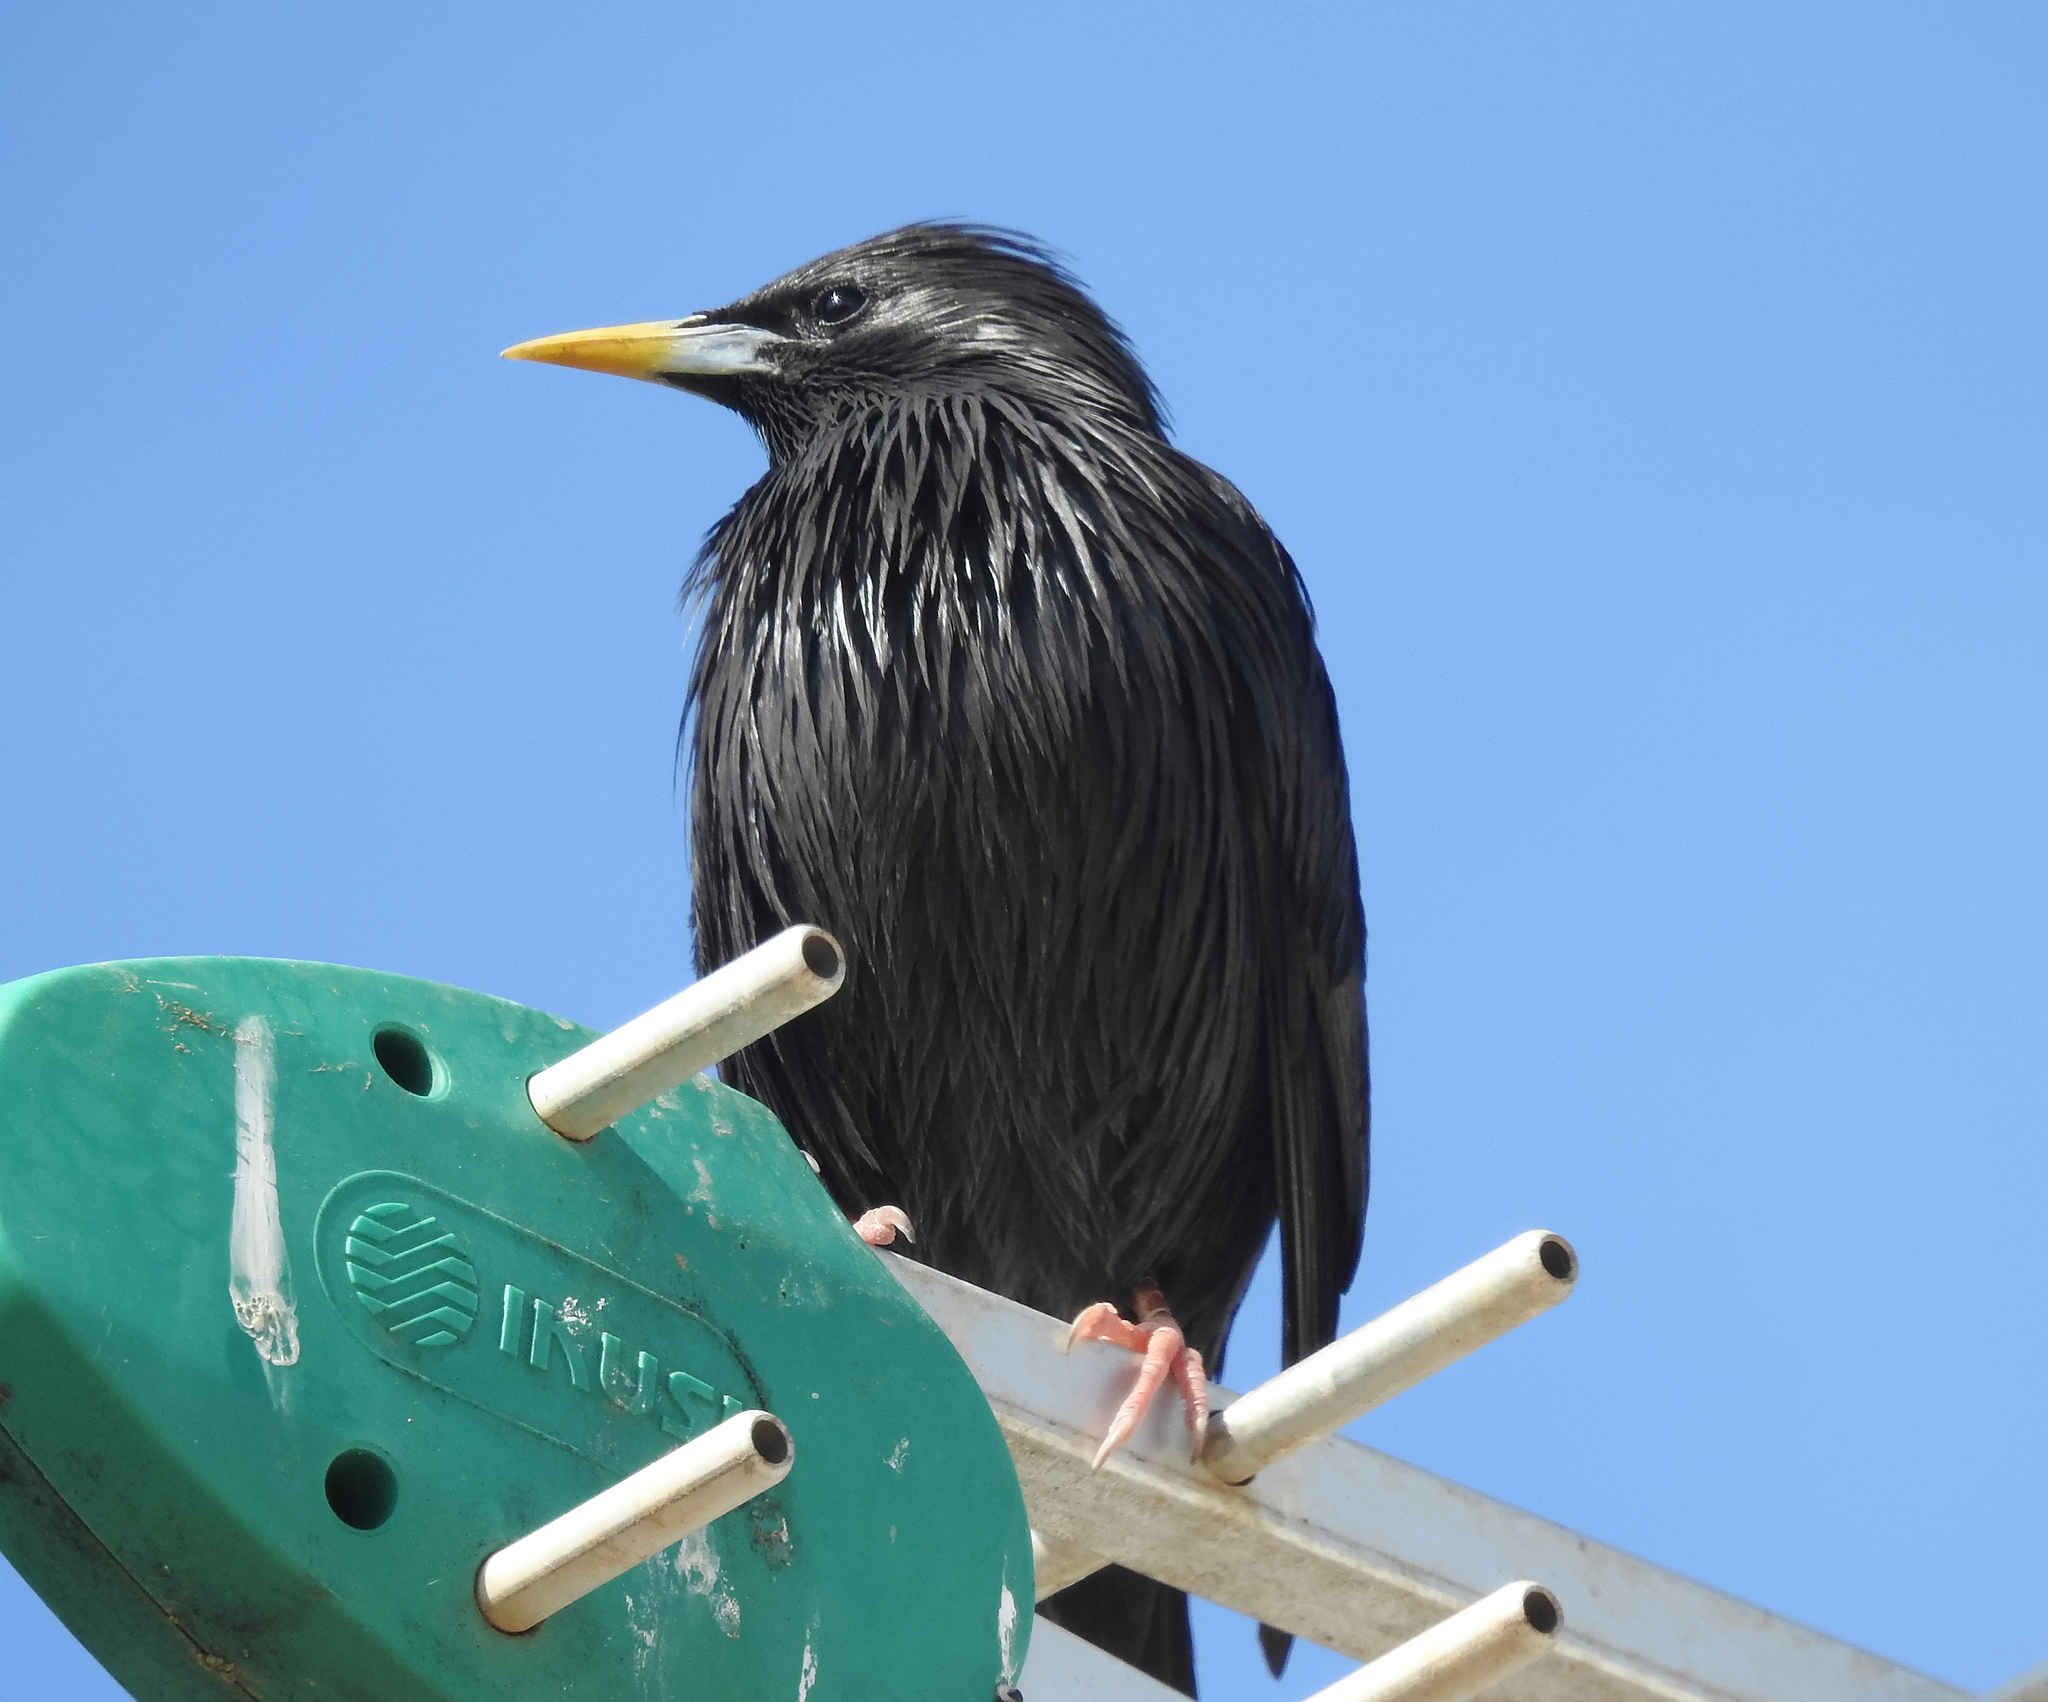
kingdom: Animalia
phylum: Chordata
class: Aves
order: Passeriformes
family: Sturnidae
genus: Sturnus
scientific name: Sturnus unicolor
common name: Spotless starling
